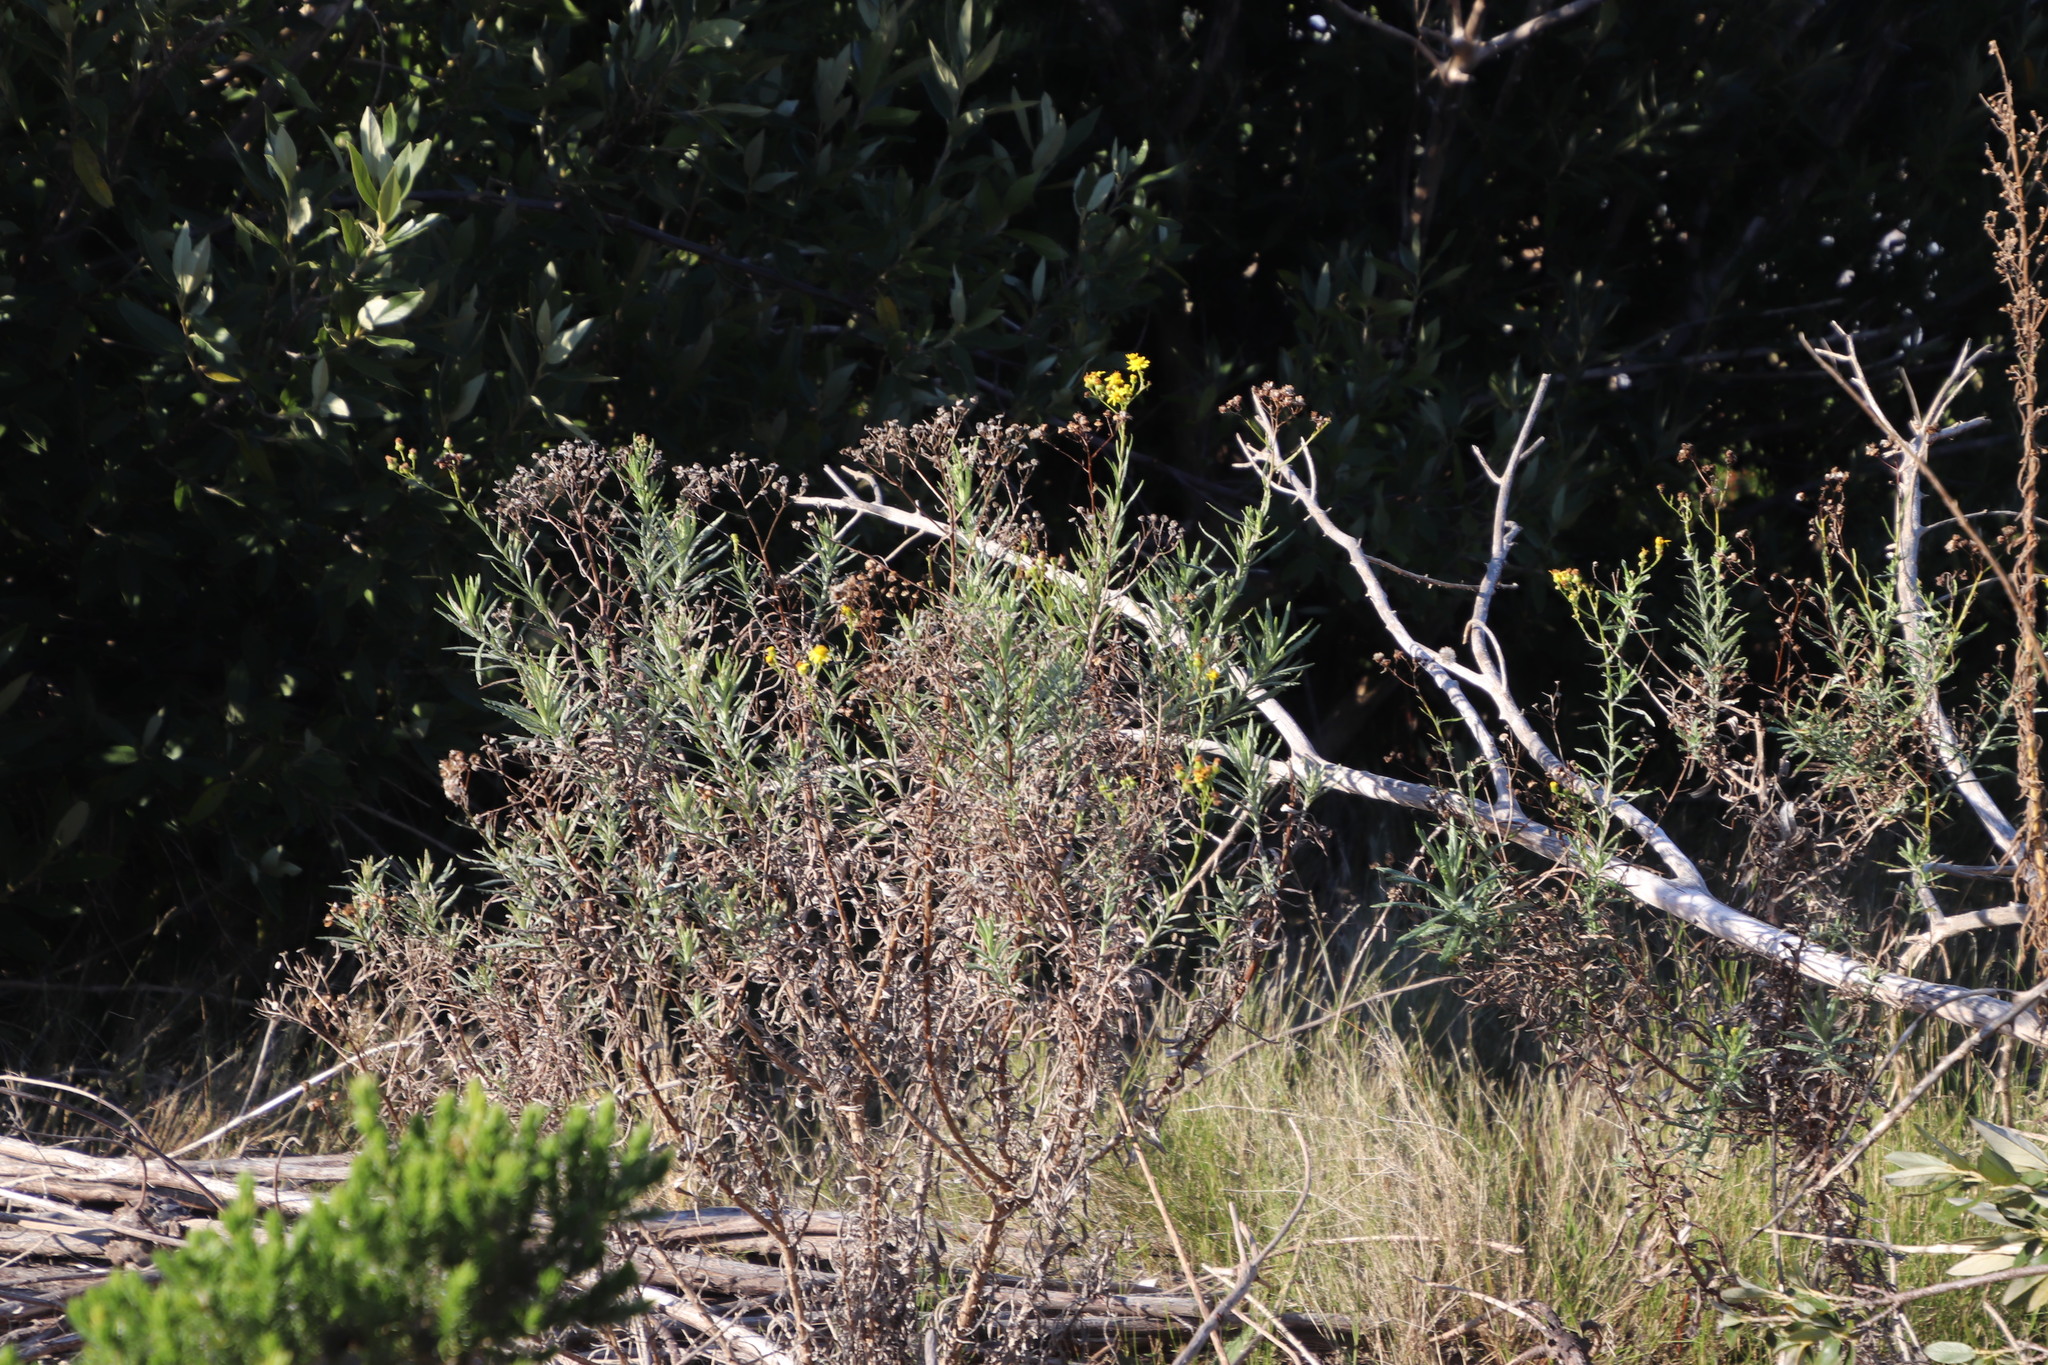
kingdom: Plantae
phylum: Tracheophyta
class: Magnoliopsida
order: Asterales
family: Asteraceae
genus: Senecio
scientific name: Senecio pterophorus
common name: Shoddy ragwort
